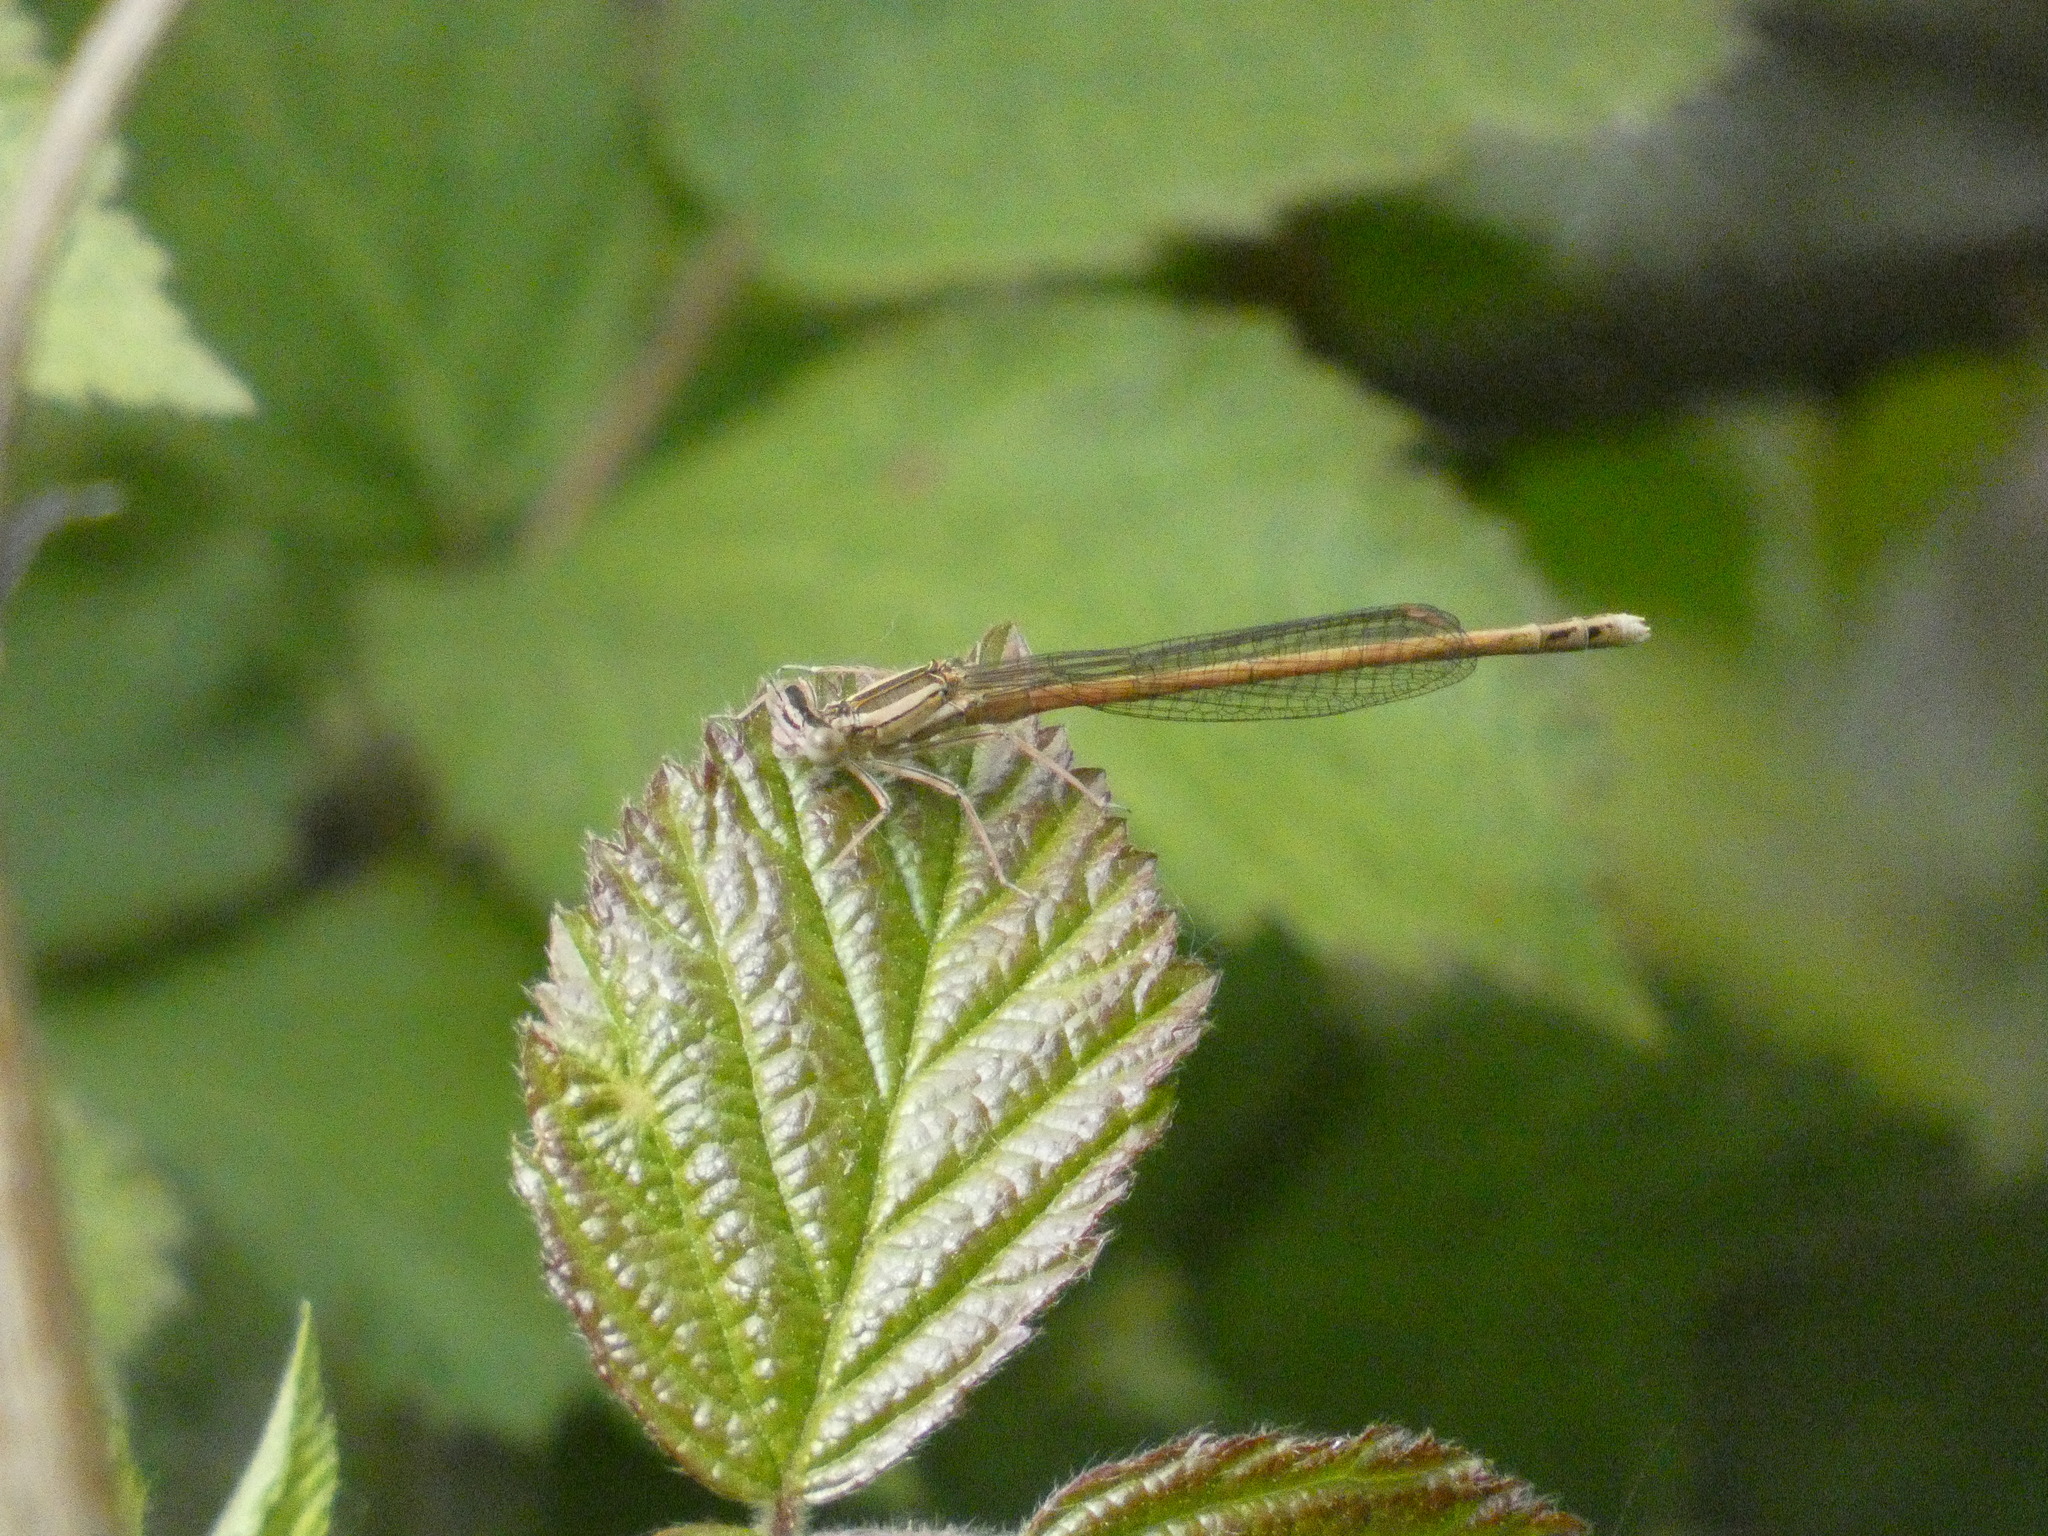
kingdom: Animalia
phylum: Arthropoda
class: Insecta
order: Odonata
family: Platycnemididae
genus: Platycnemis
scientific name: Platycnemis acutipennis
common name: Orange featherleg
